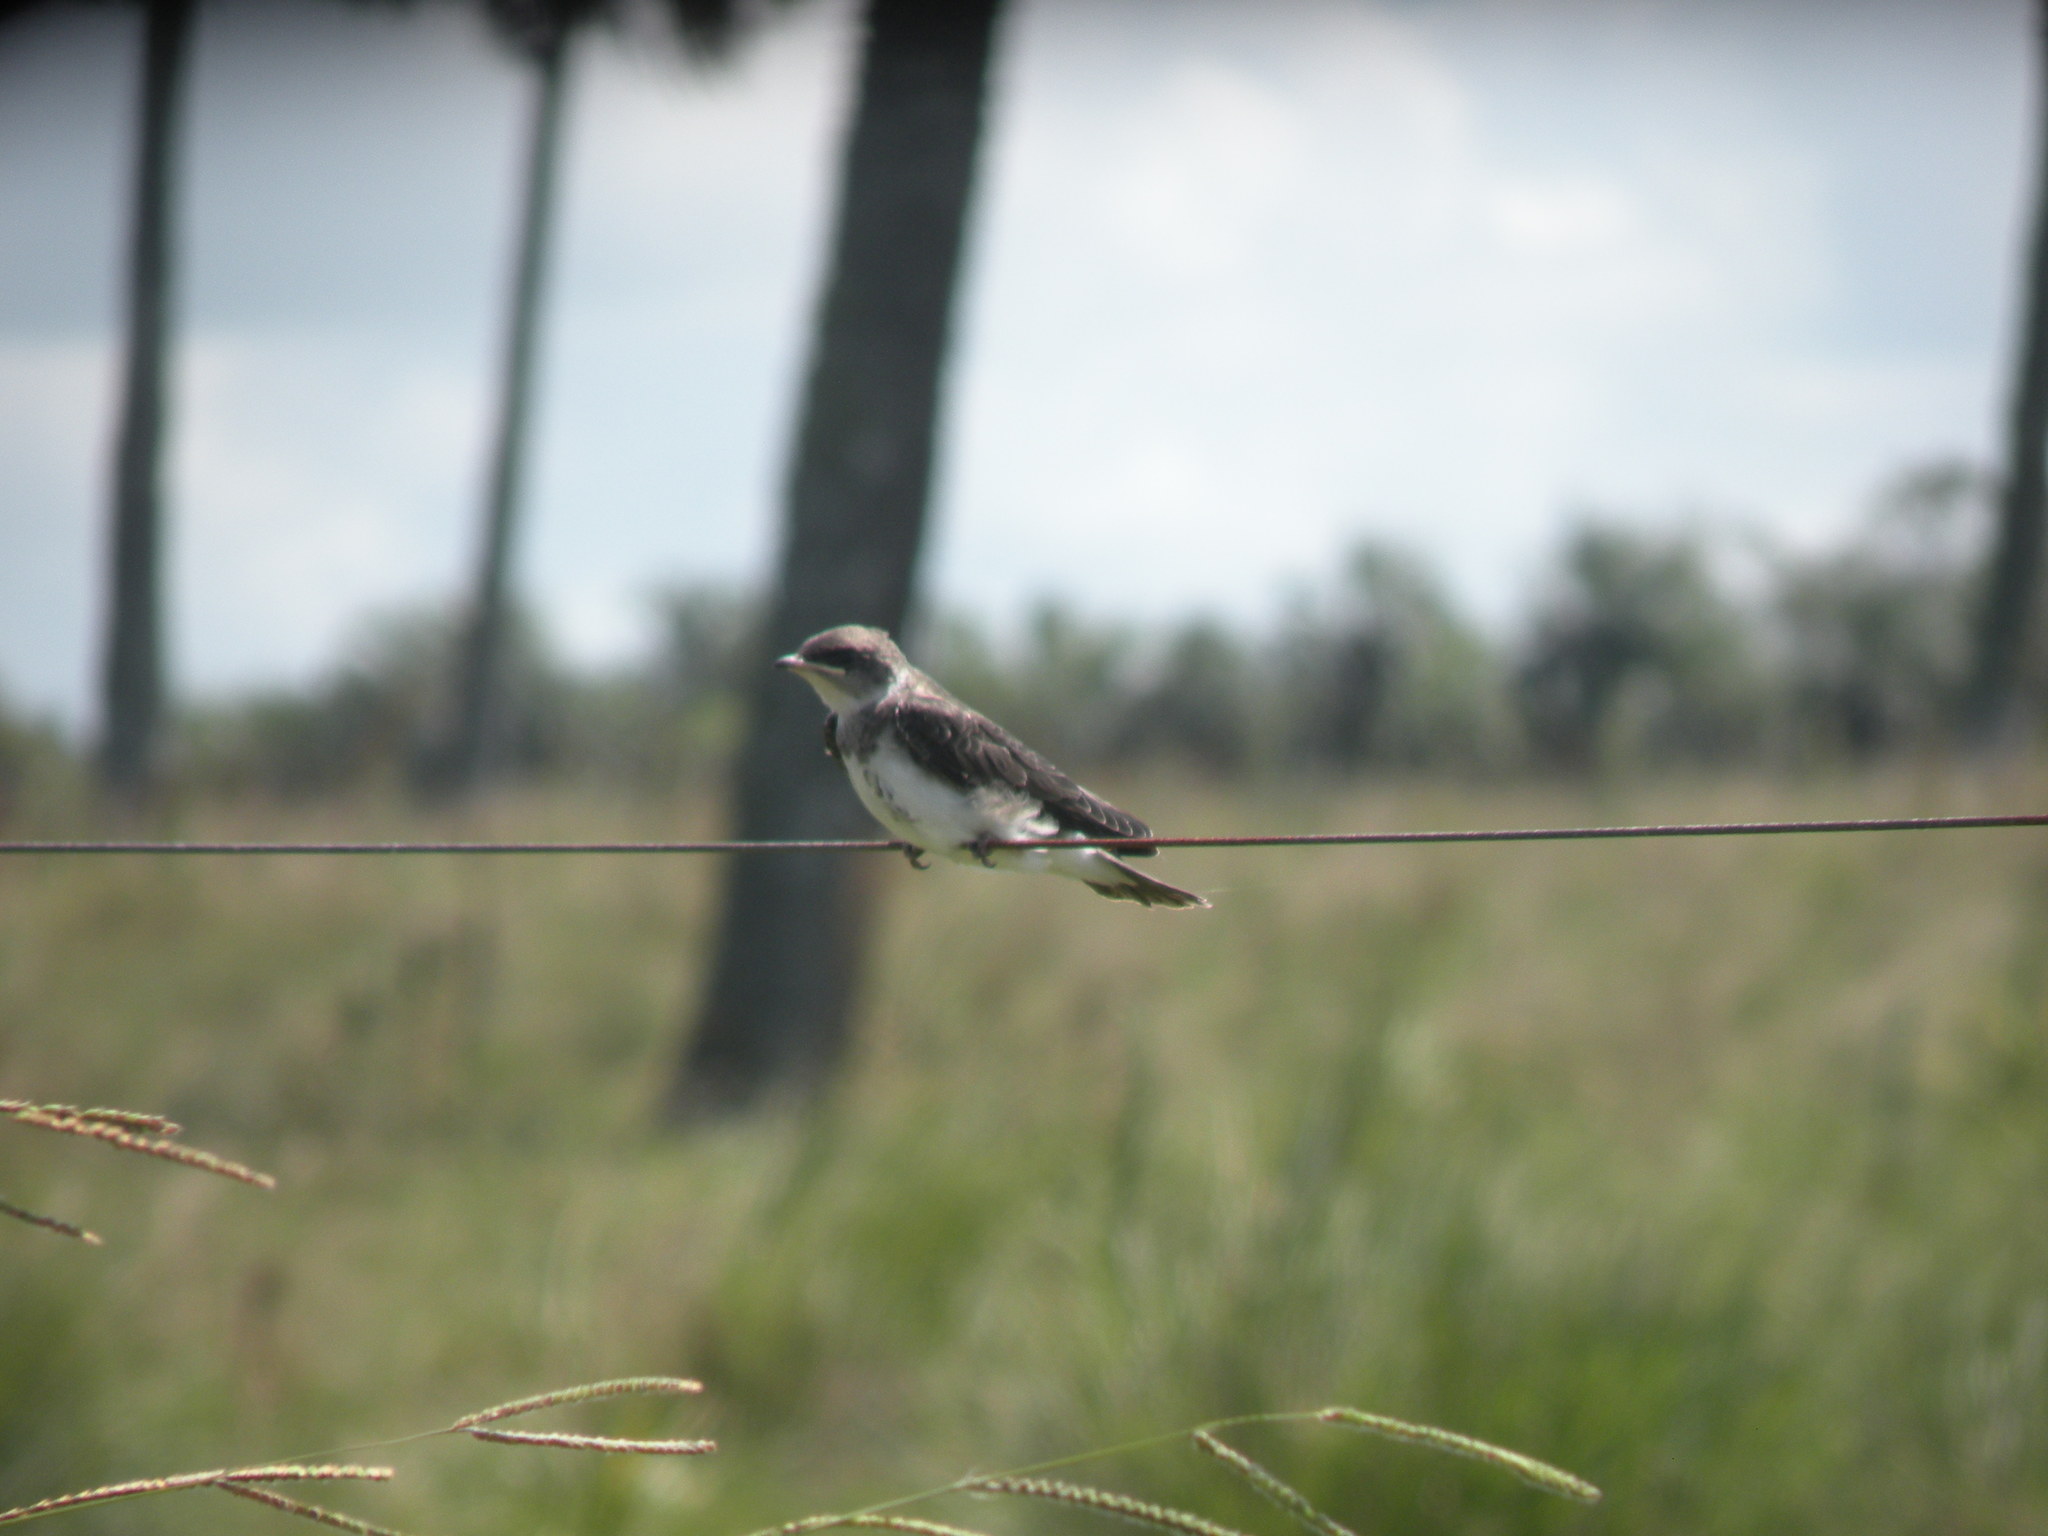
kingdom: Animalia
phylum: Chordata
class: Aves
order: Passeriformes
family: Hirundinidae
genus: Progne
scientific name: Progne tapera
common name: Brown-chested martin
